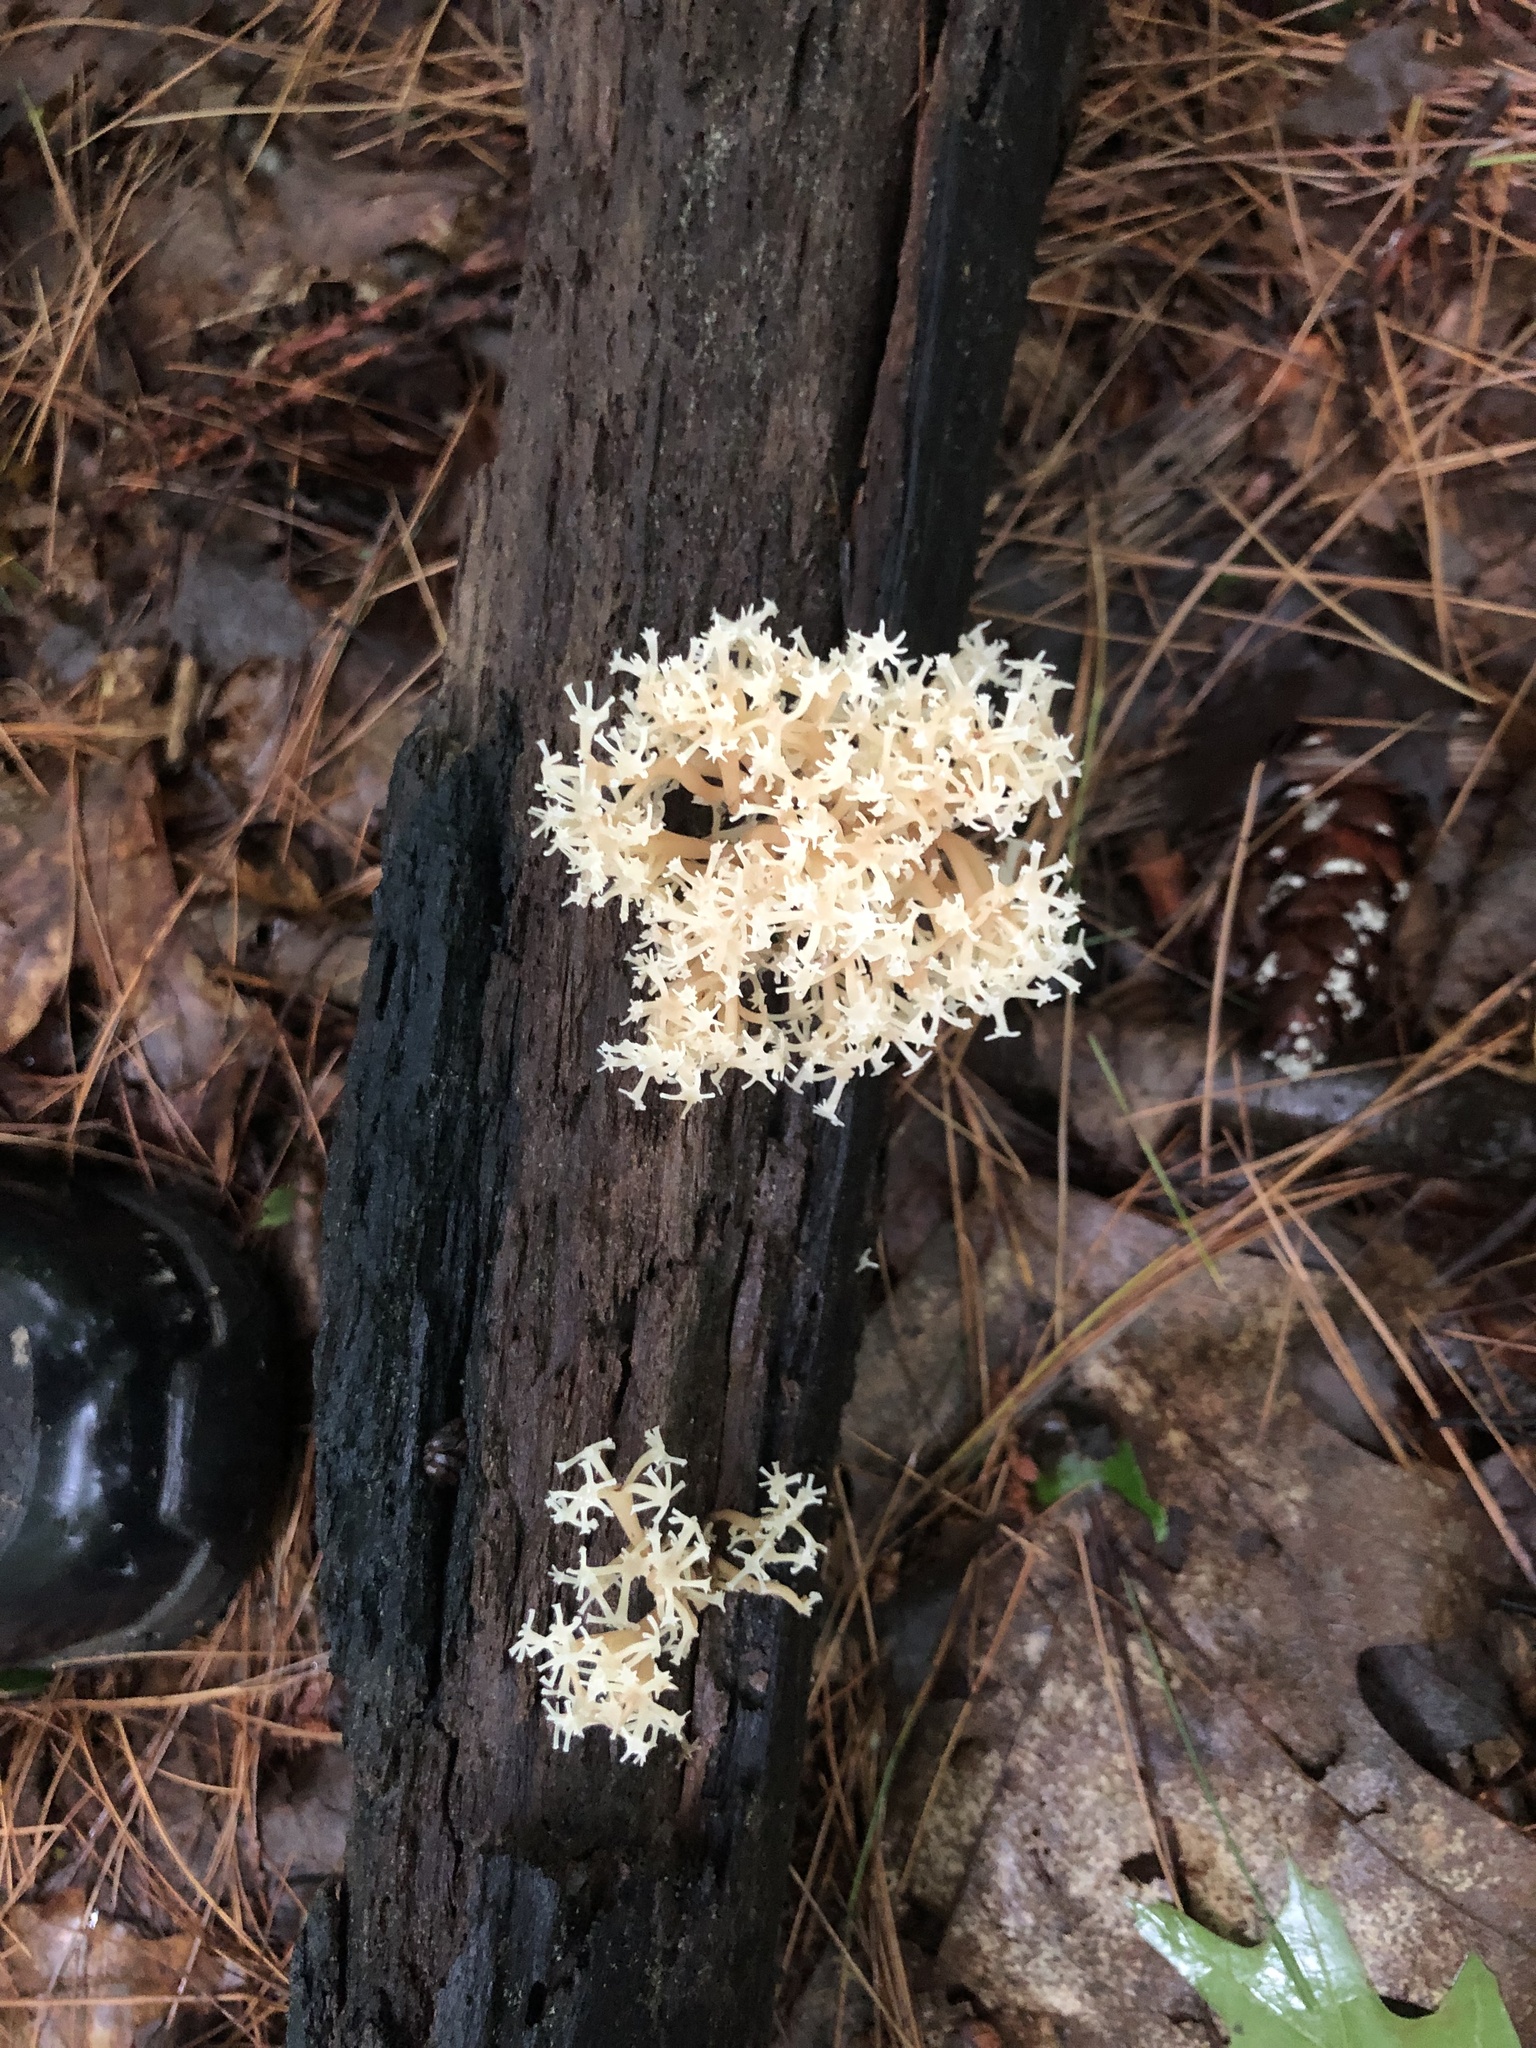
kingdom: Fungi
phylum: Basidiomycota
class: Agaricomycetes
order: Russulales
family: Auriscalpiaceae
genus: Artomyces
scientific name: Artomyces pyxidatus
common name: Crown-tipped coral fungus
